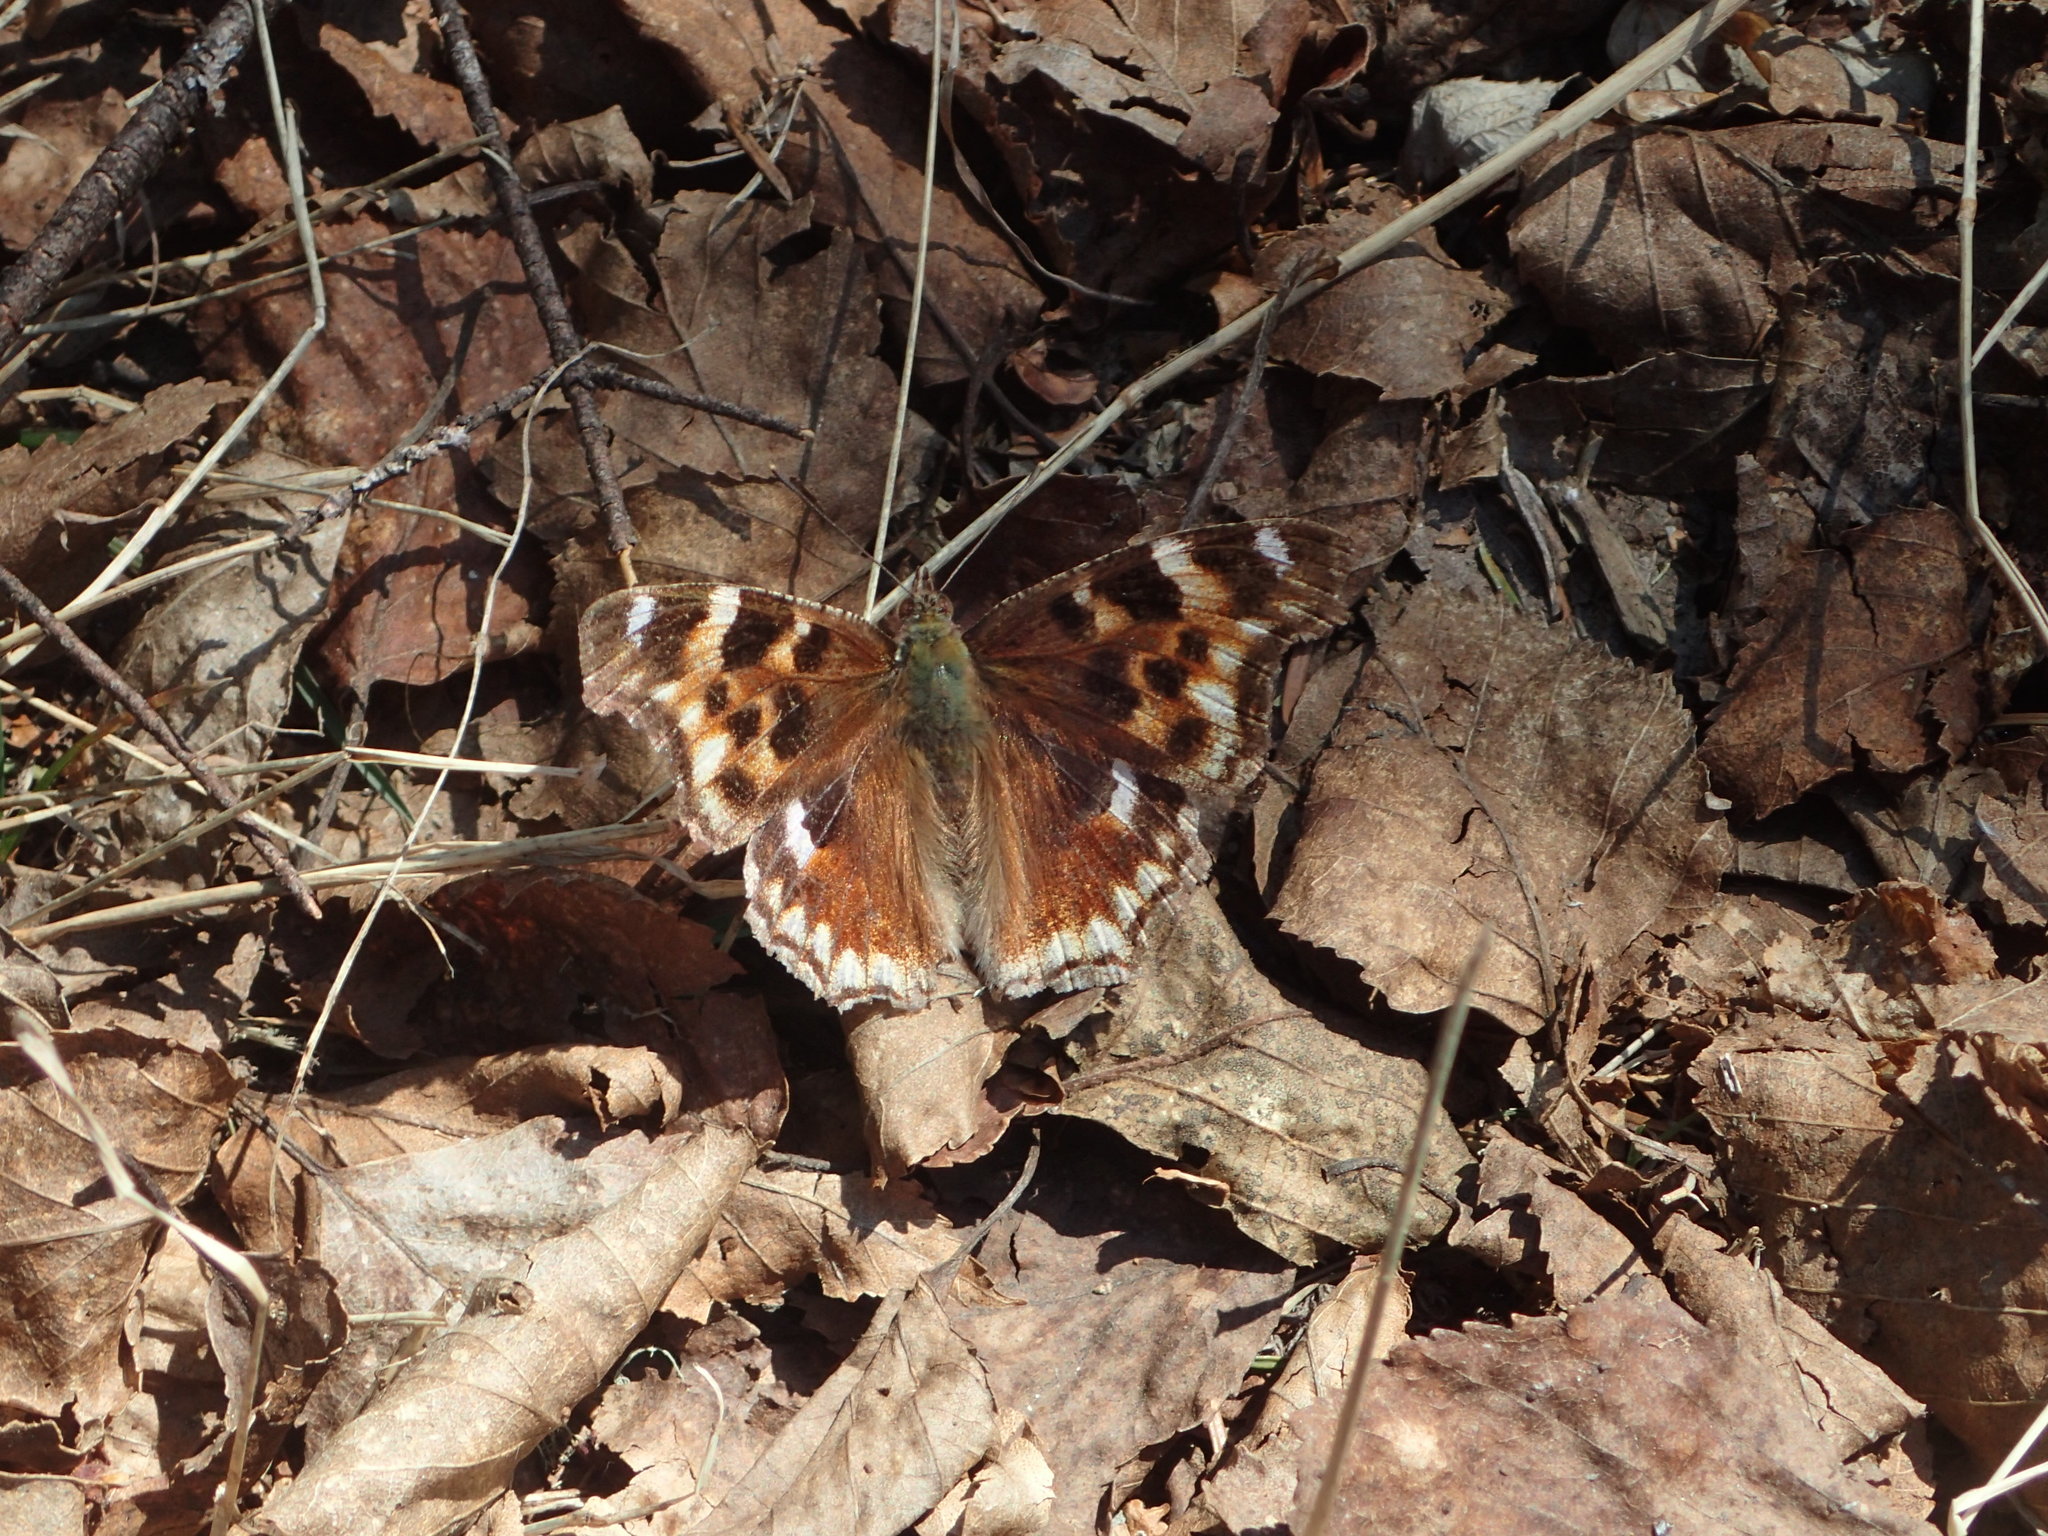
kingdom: Animalia
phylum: Arthropoda
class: Insecta
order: Lepidoptera
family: Nymphalidae
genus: Polygonia
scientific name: Polygonia vaualbum
